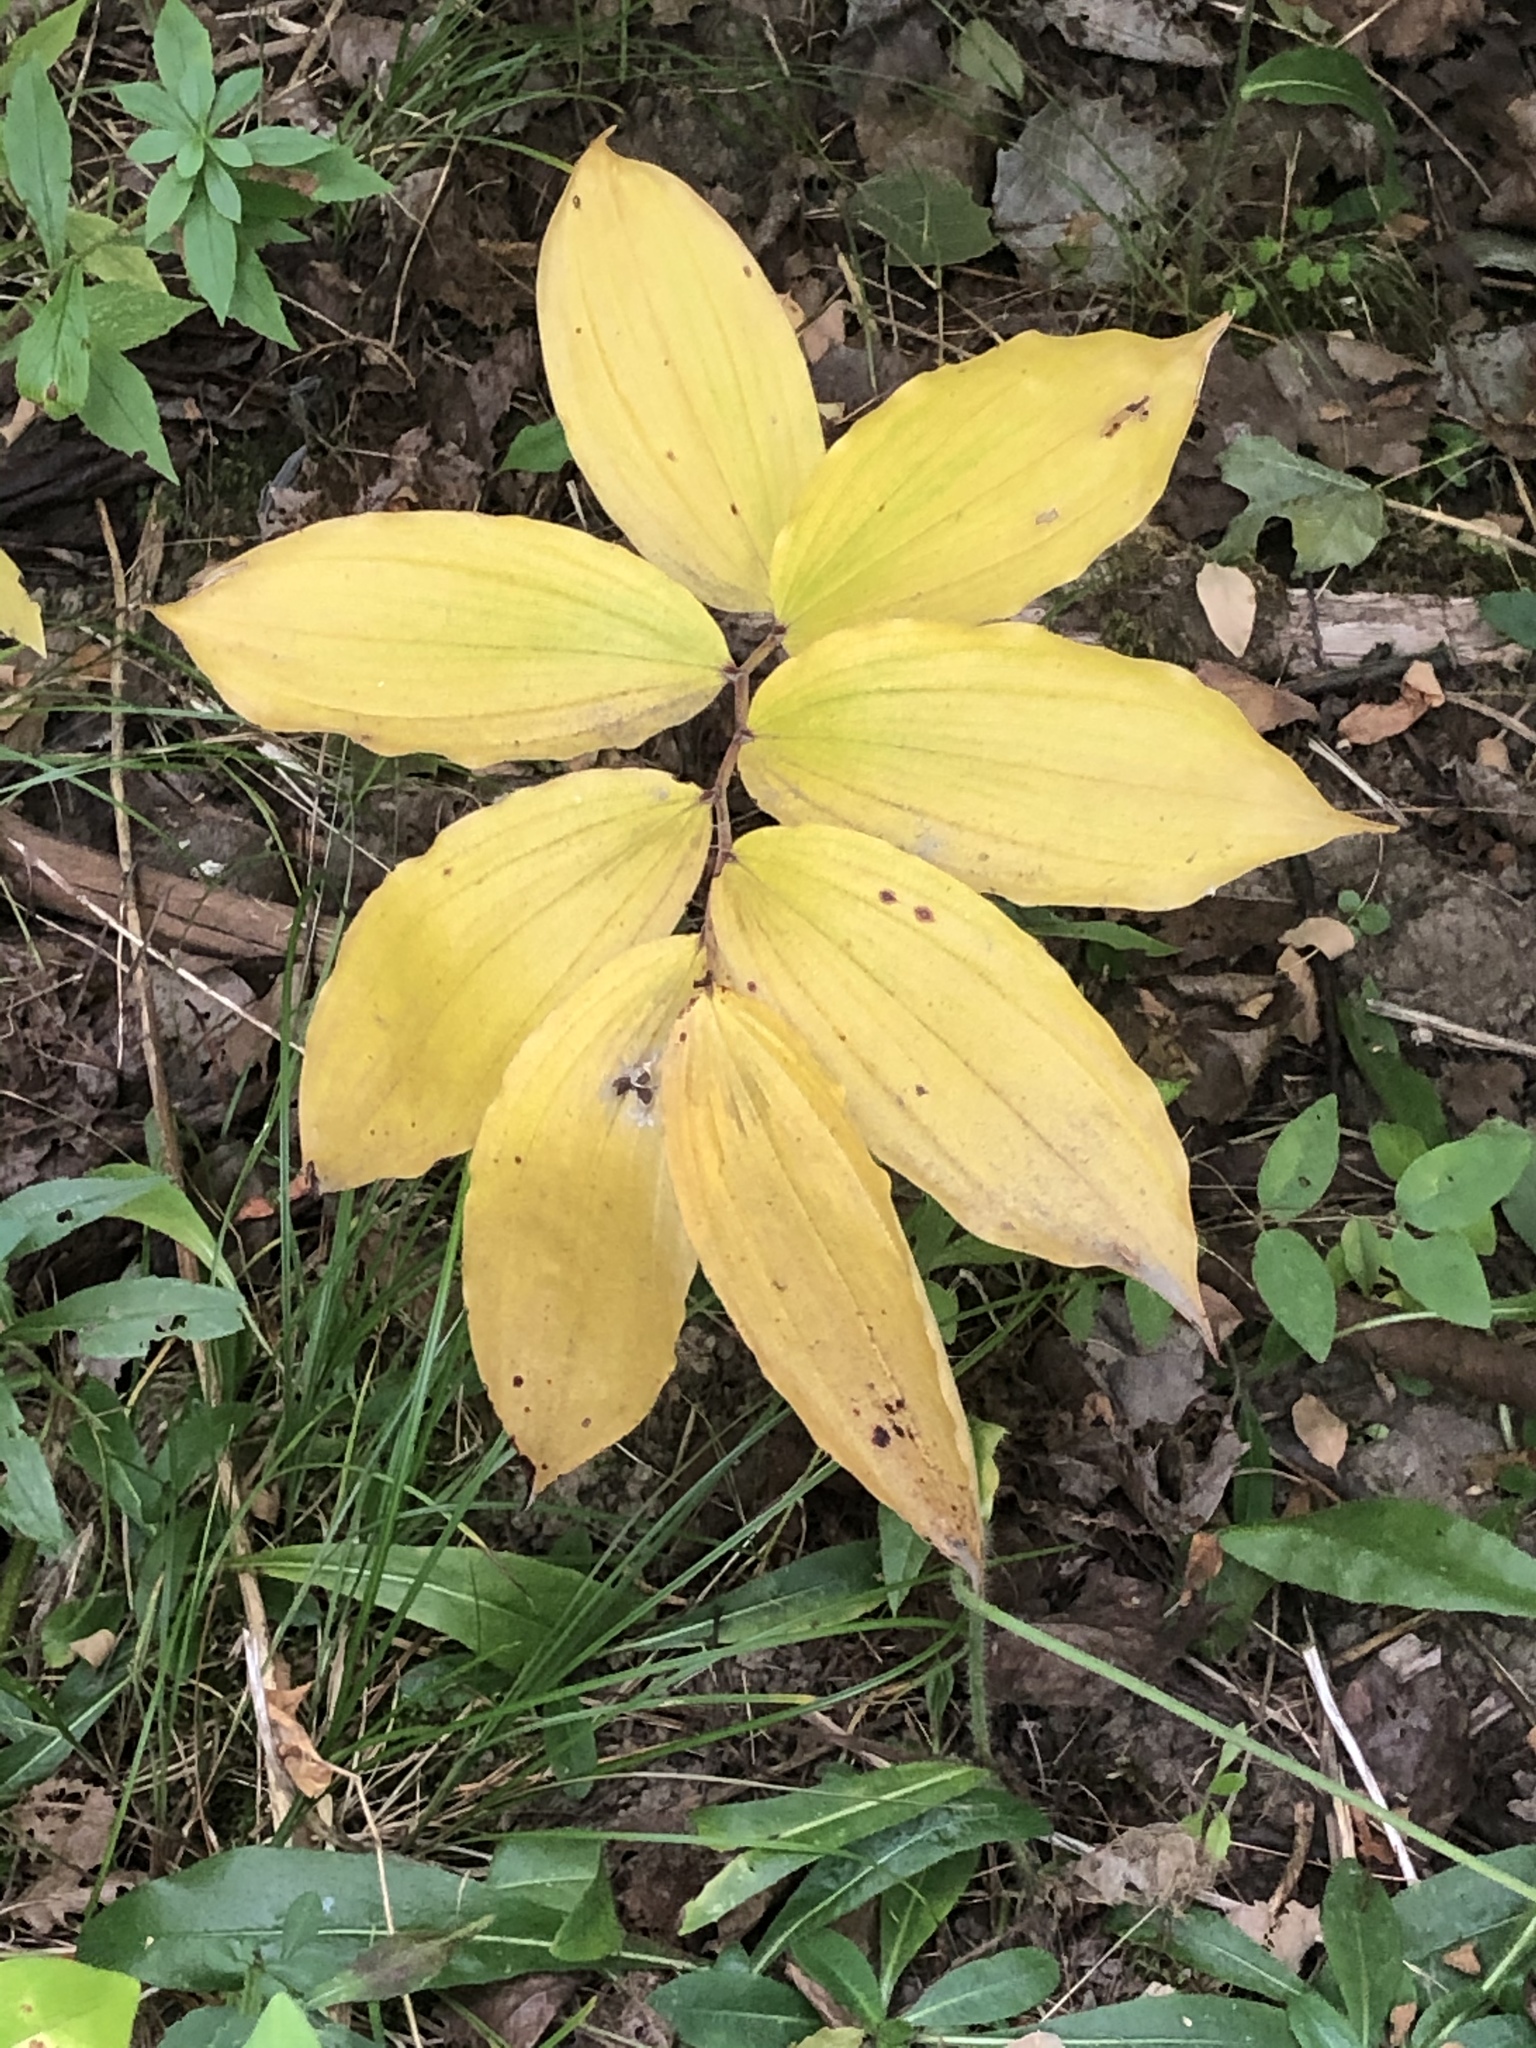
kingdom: Plantae
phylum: Tracheophyta
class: Liliopsida
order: Asparagales
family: Asparagaceae
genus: Maianthemum
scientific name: Maianthemum racemosum
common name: False spikenard
